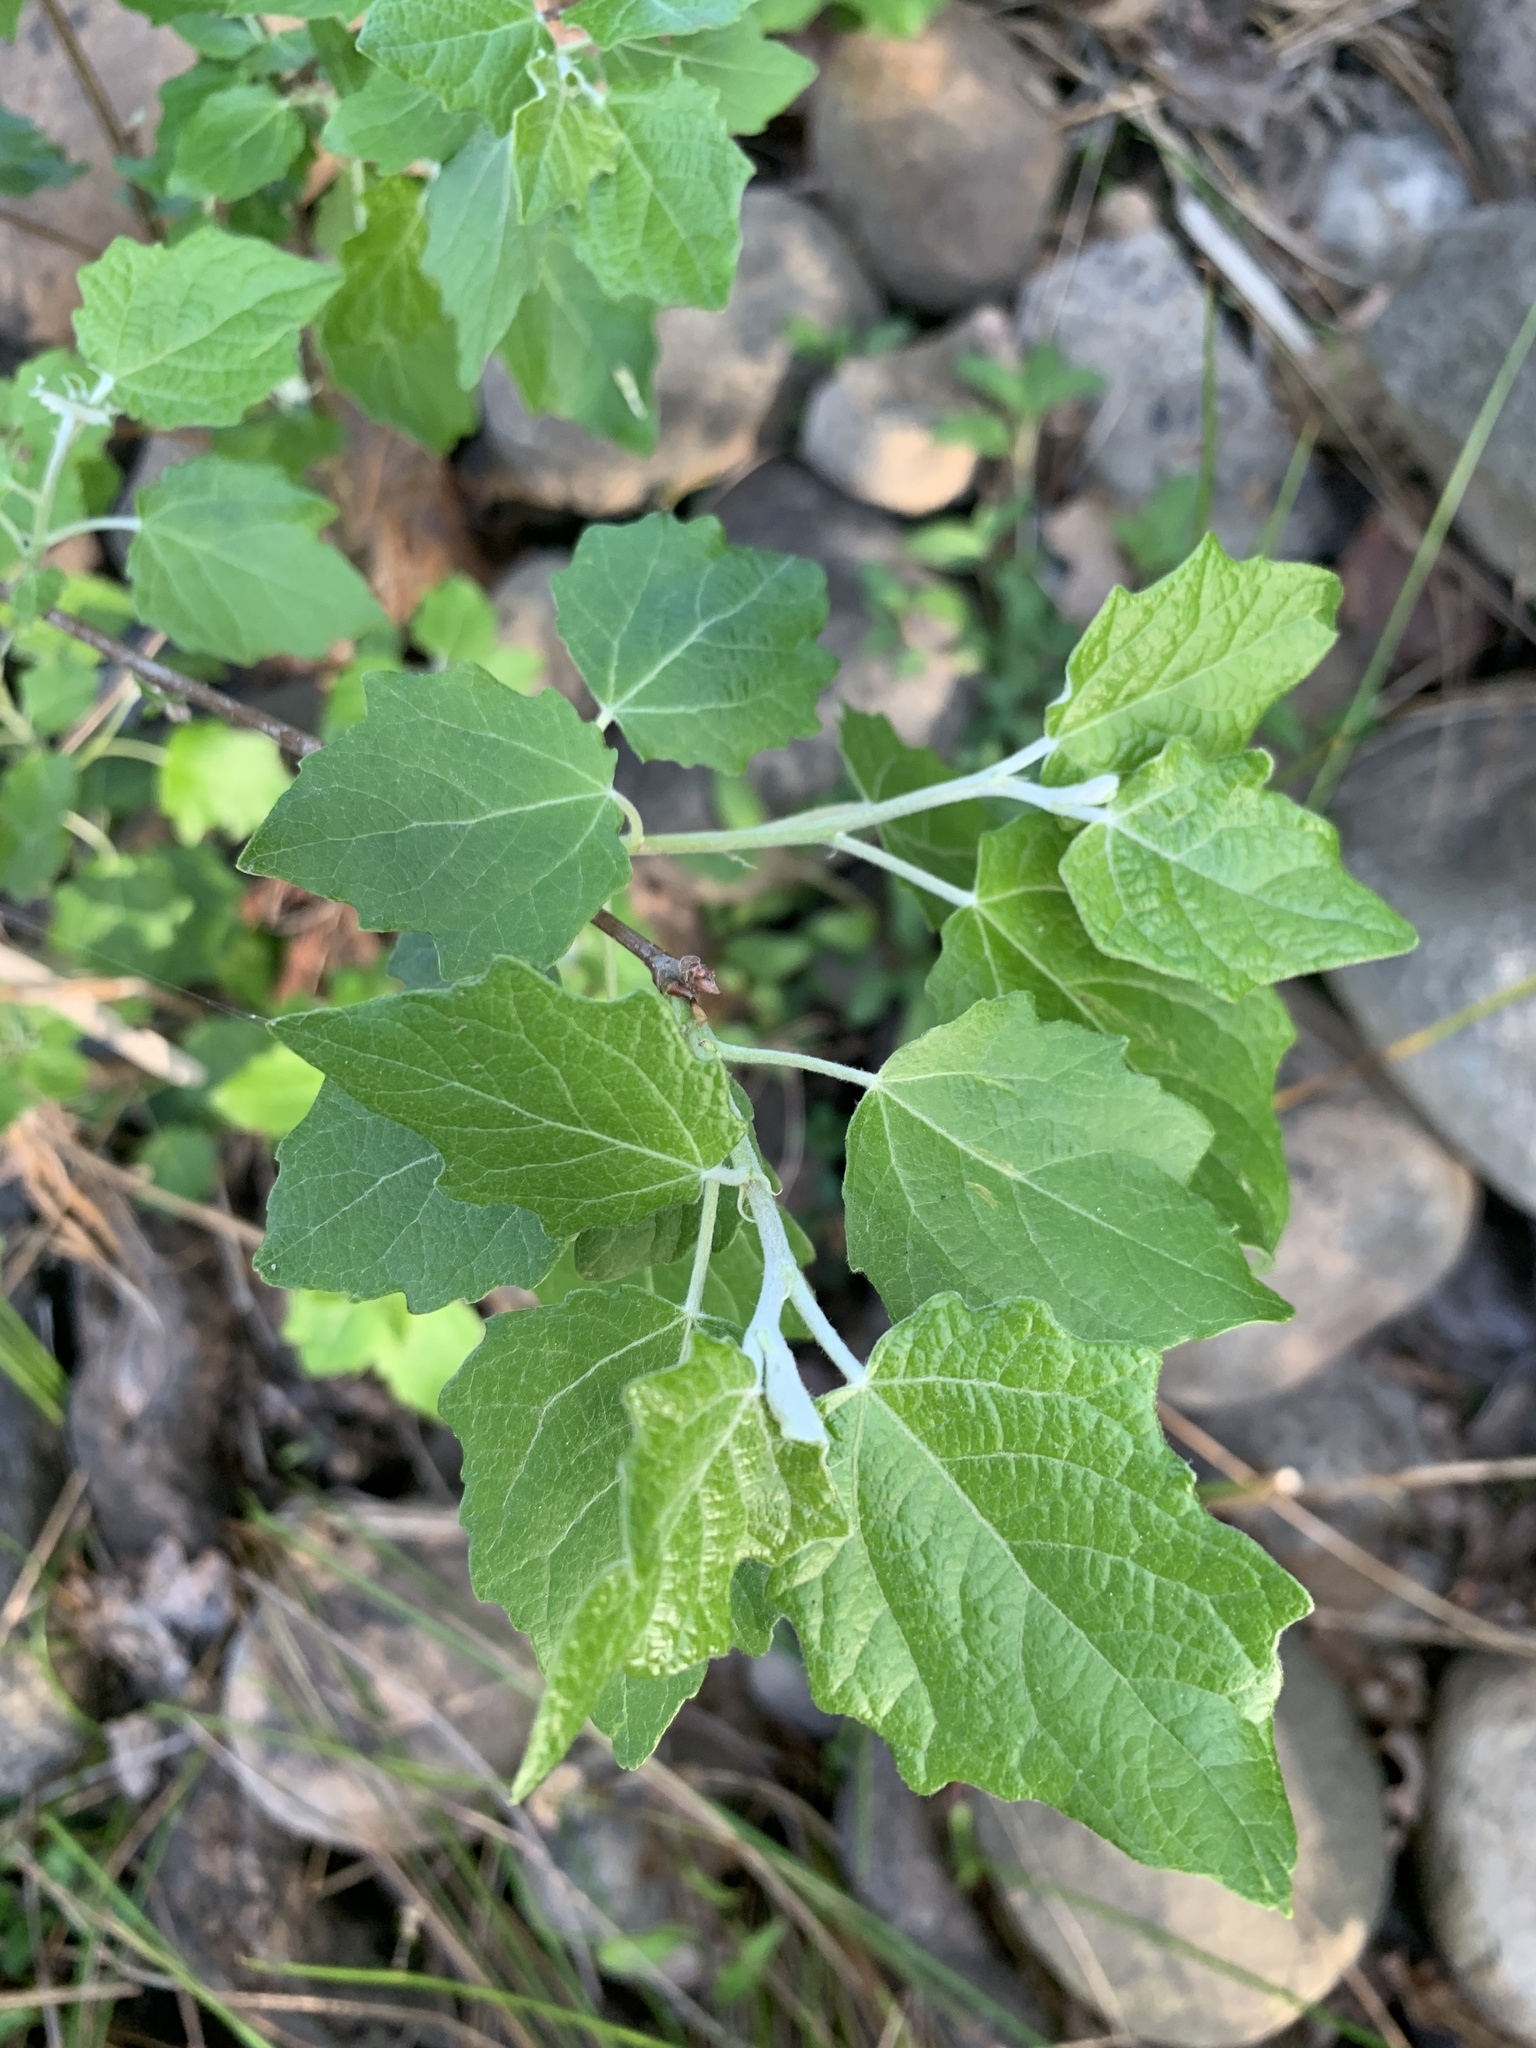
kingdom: Plantae
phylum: Tracheophyta
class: Magnoliopsida
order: Malpighiales
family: Salicaceae
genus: Populus
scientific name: Populus canescens
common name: Gray poplar
